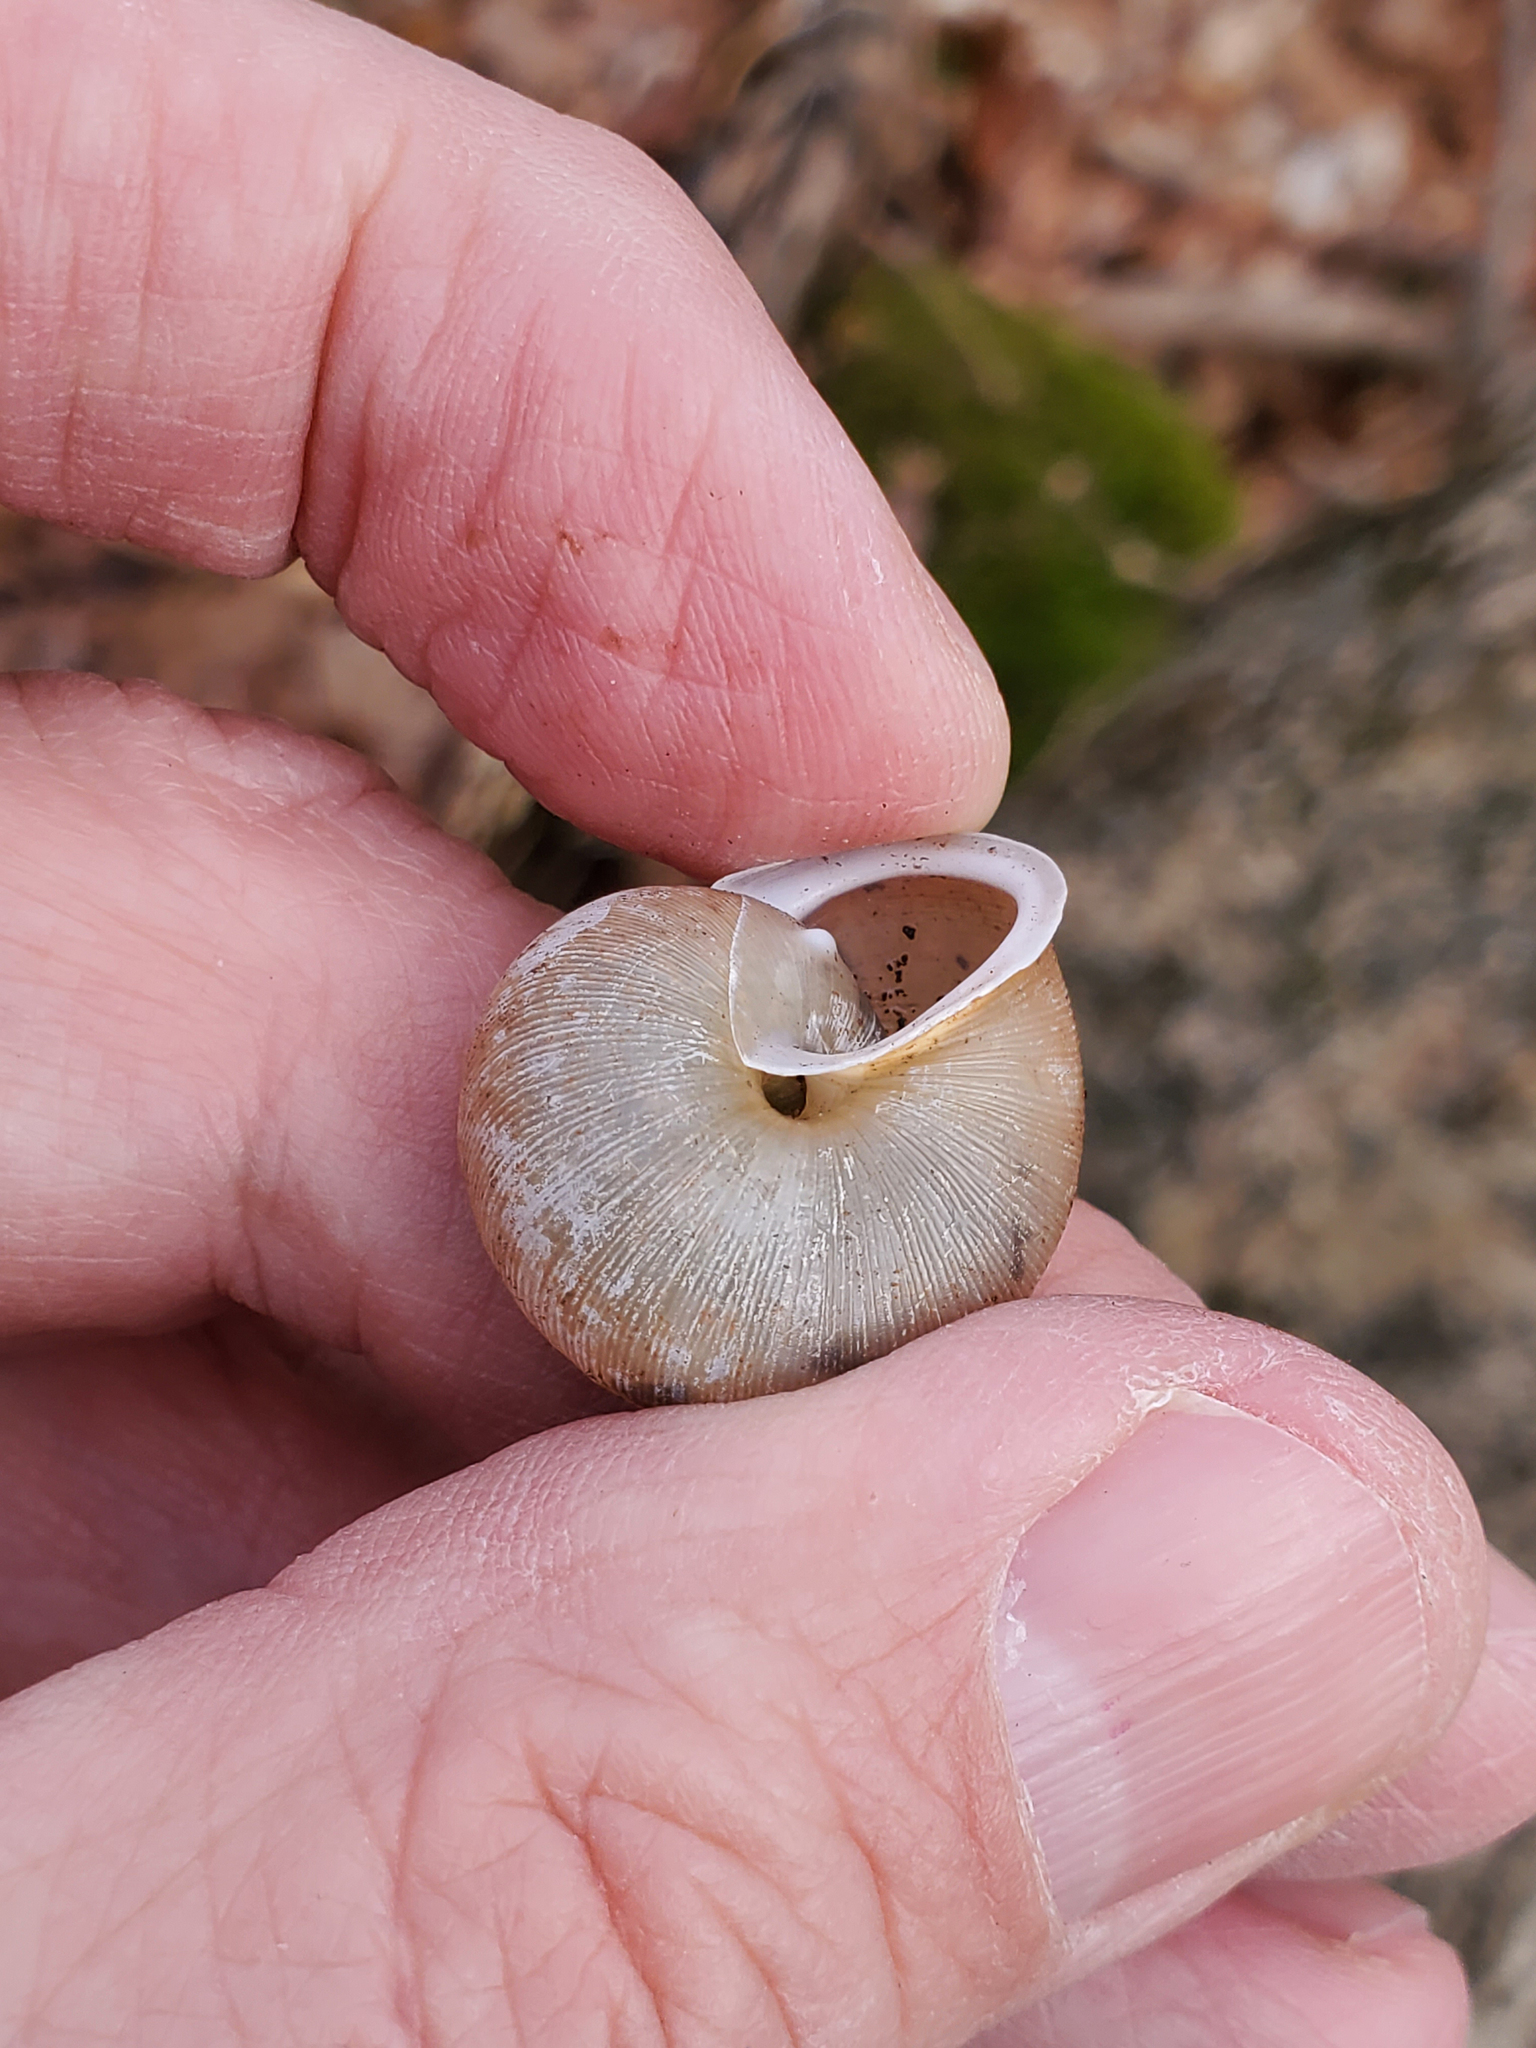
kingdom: Animalia
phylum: Mollusca
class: Gastropoda
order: Stylommatophora
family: Polygyridae
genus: Neohelix
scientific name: Neohelix albolabris
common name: Eastern whitelip
